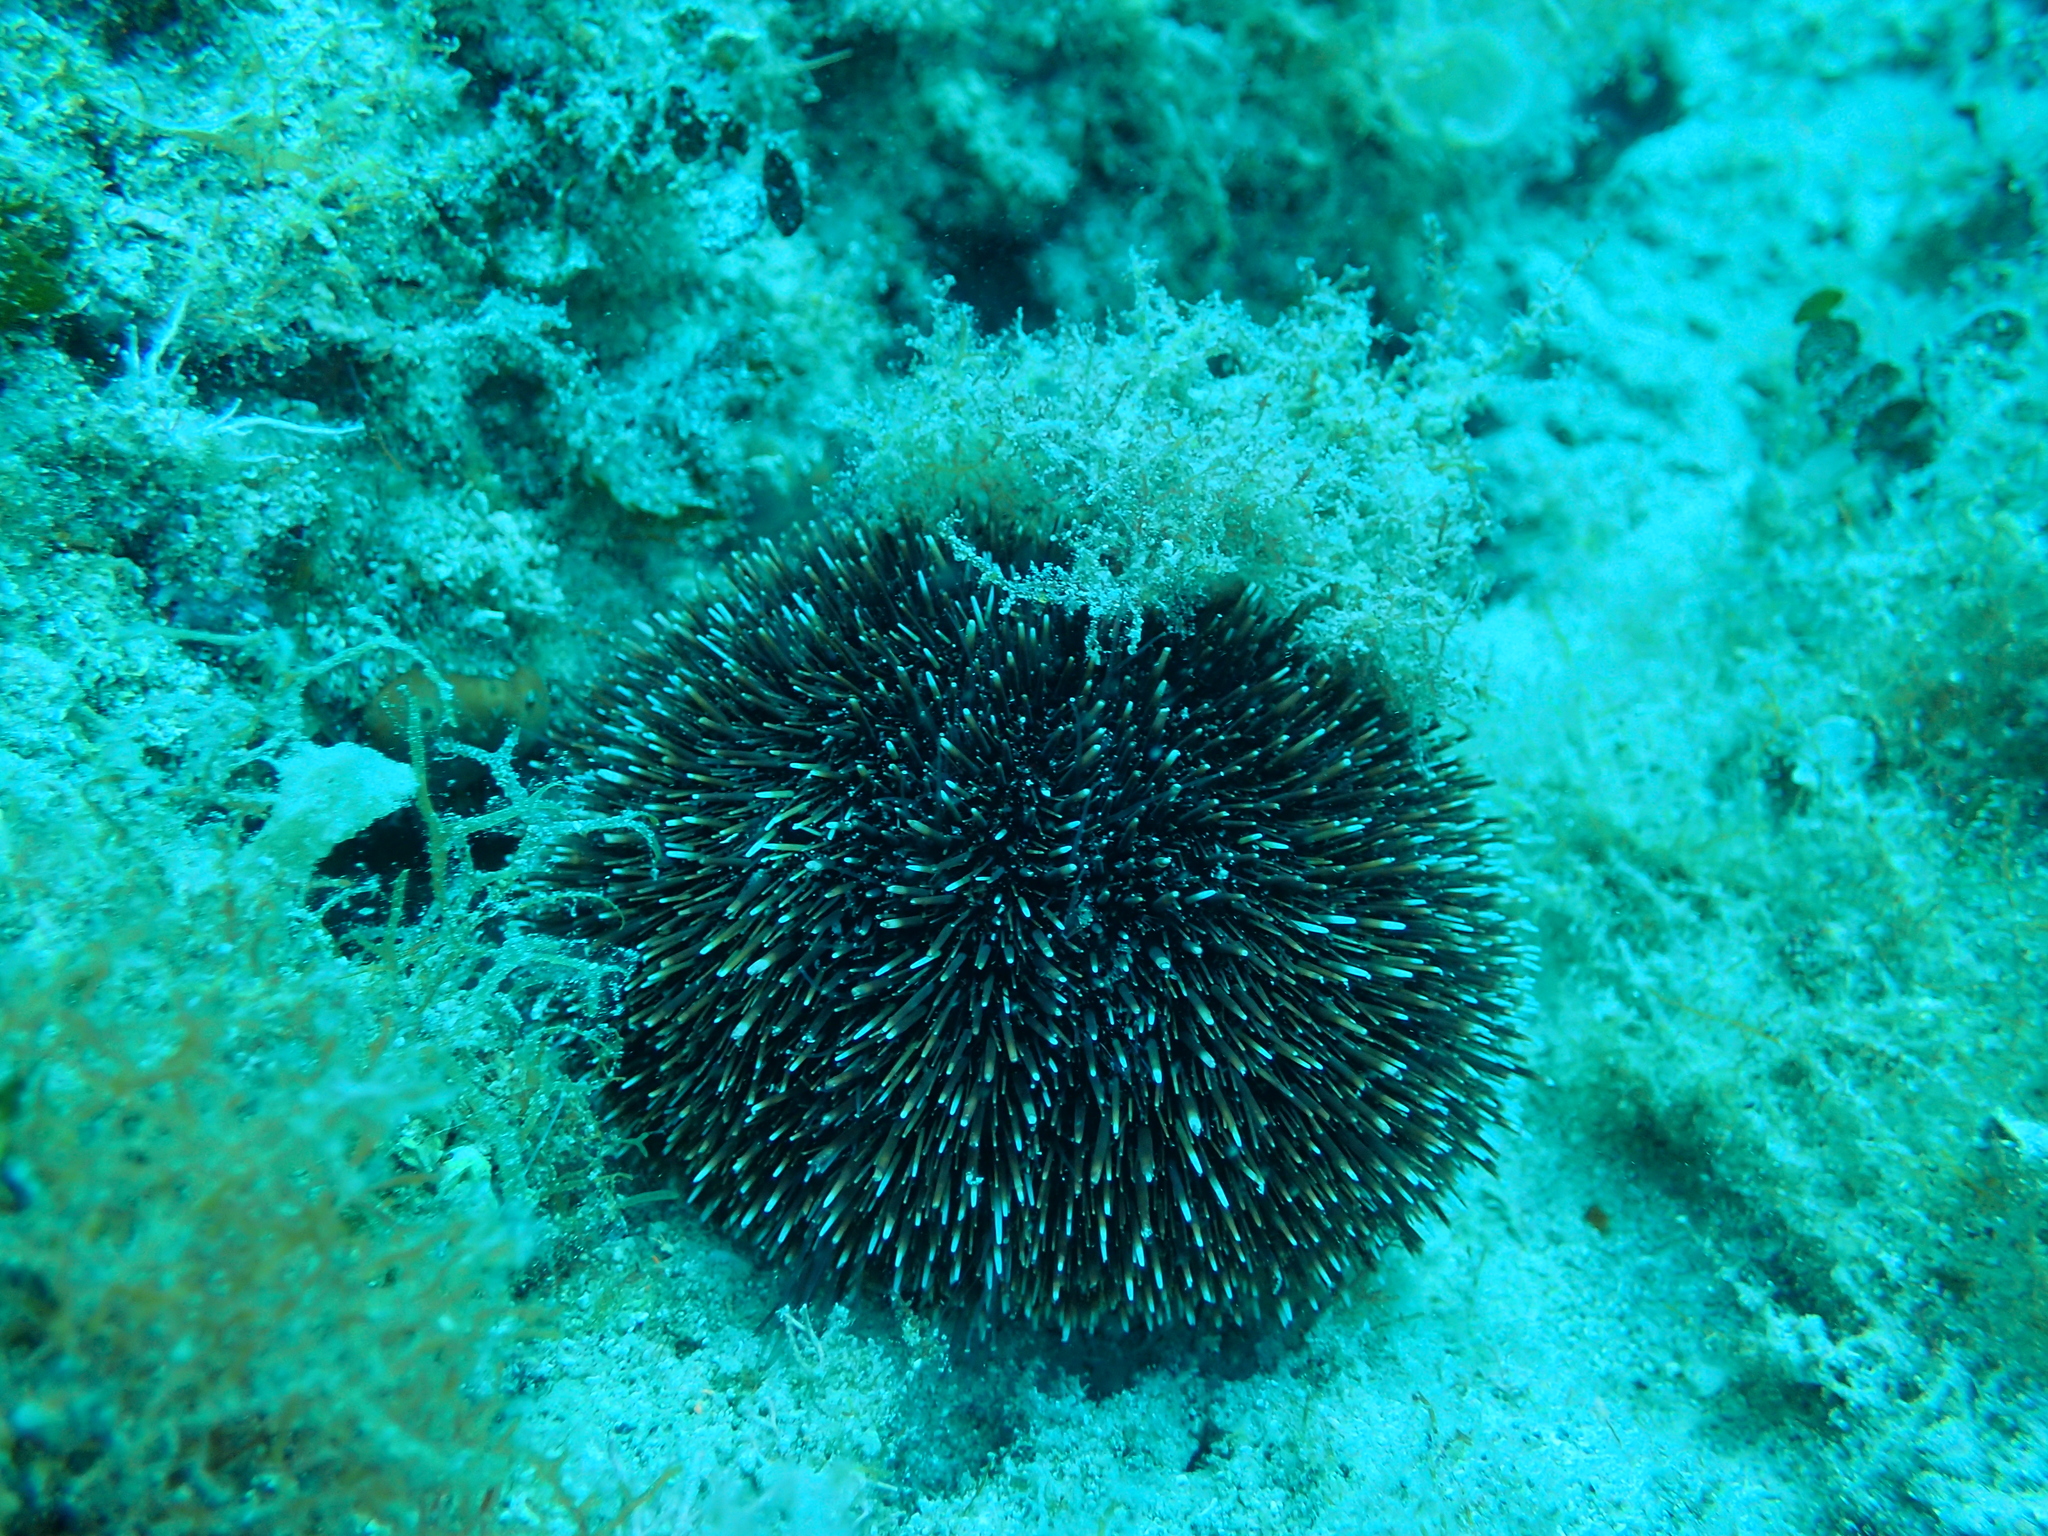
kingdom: Animalia
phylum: Echinodermata
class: Echinoidea
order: Camarodonta
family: Toxopneustidae
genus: Sphaerechinus
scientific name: Sphaerechinus granularis
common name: Violet sea urchin
